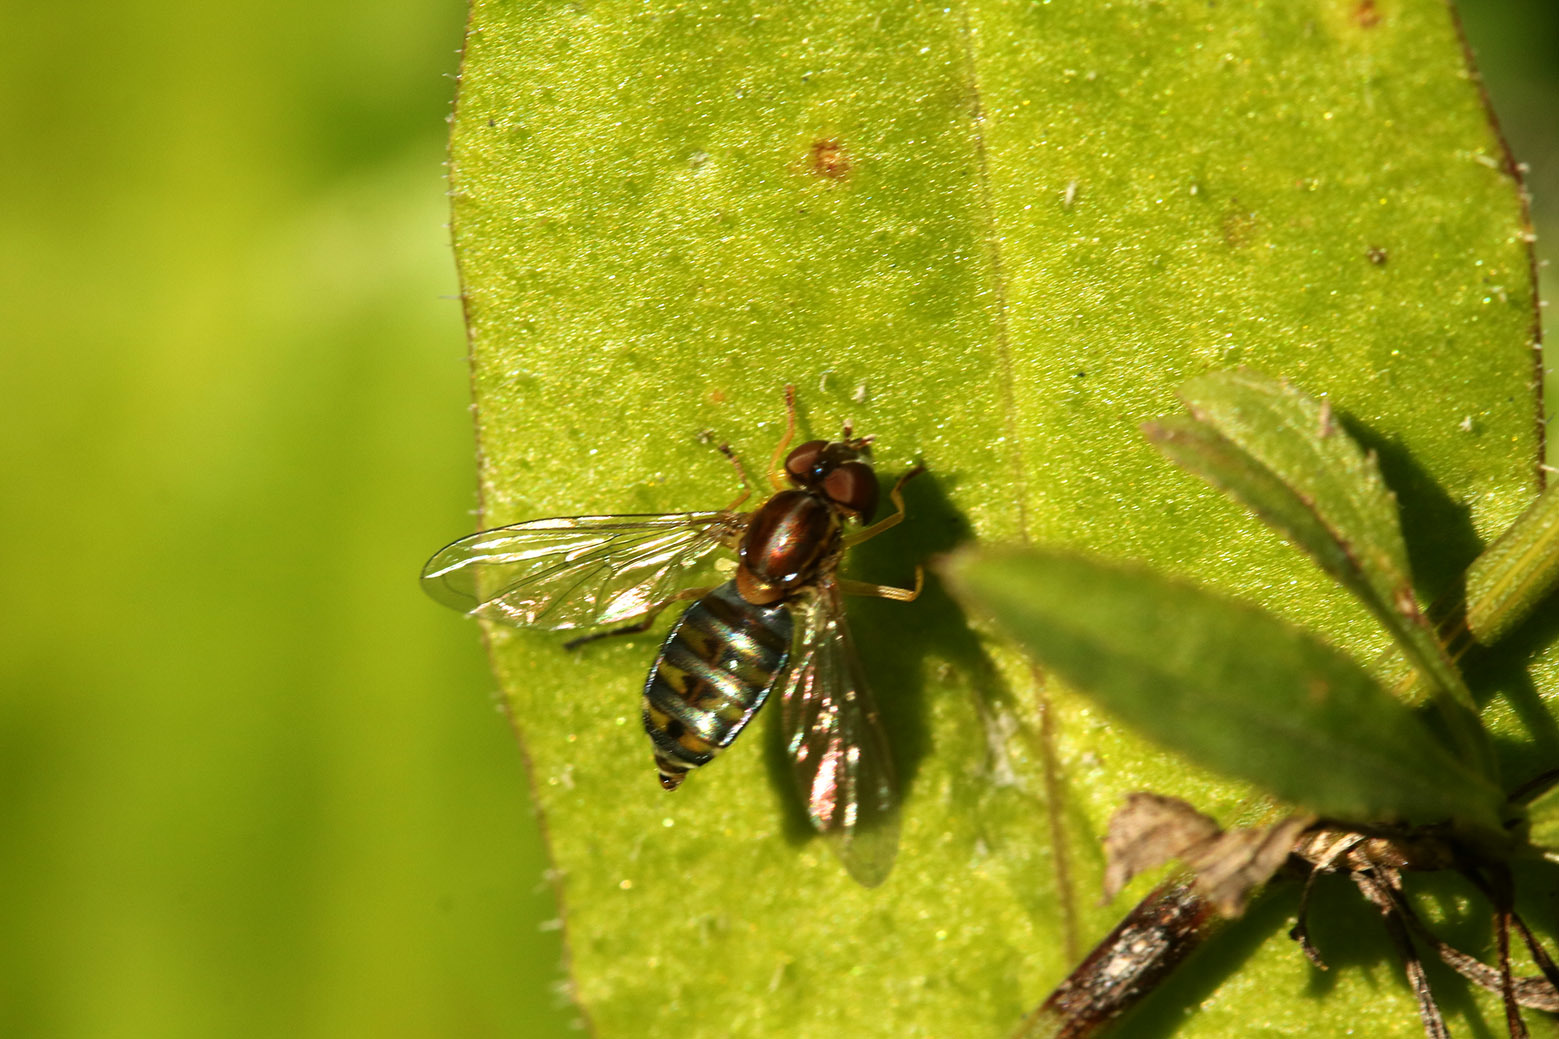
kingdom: Animalia
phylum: Arthropoda
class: Insecta
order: Diptera
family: Syrphidae
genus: Toxomerus
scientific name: Toxomerus
